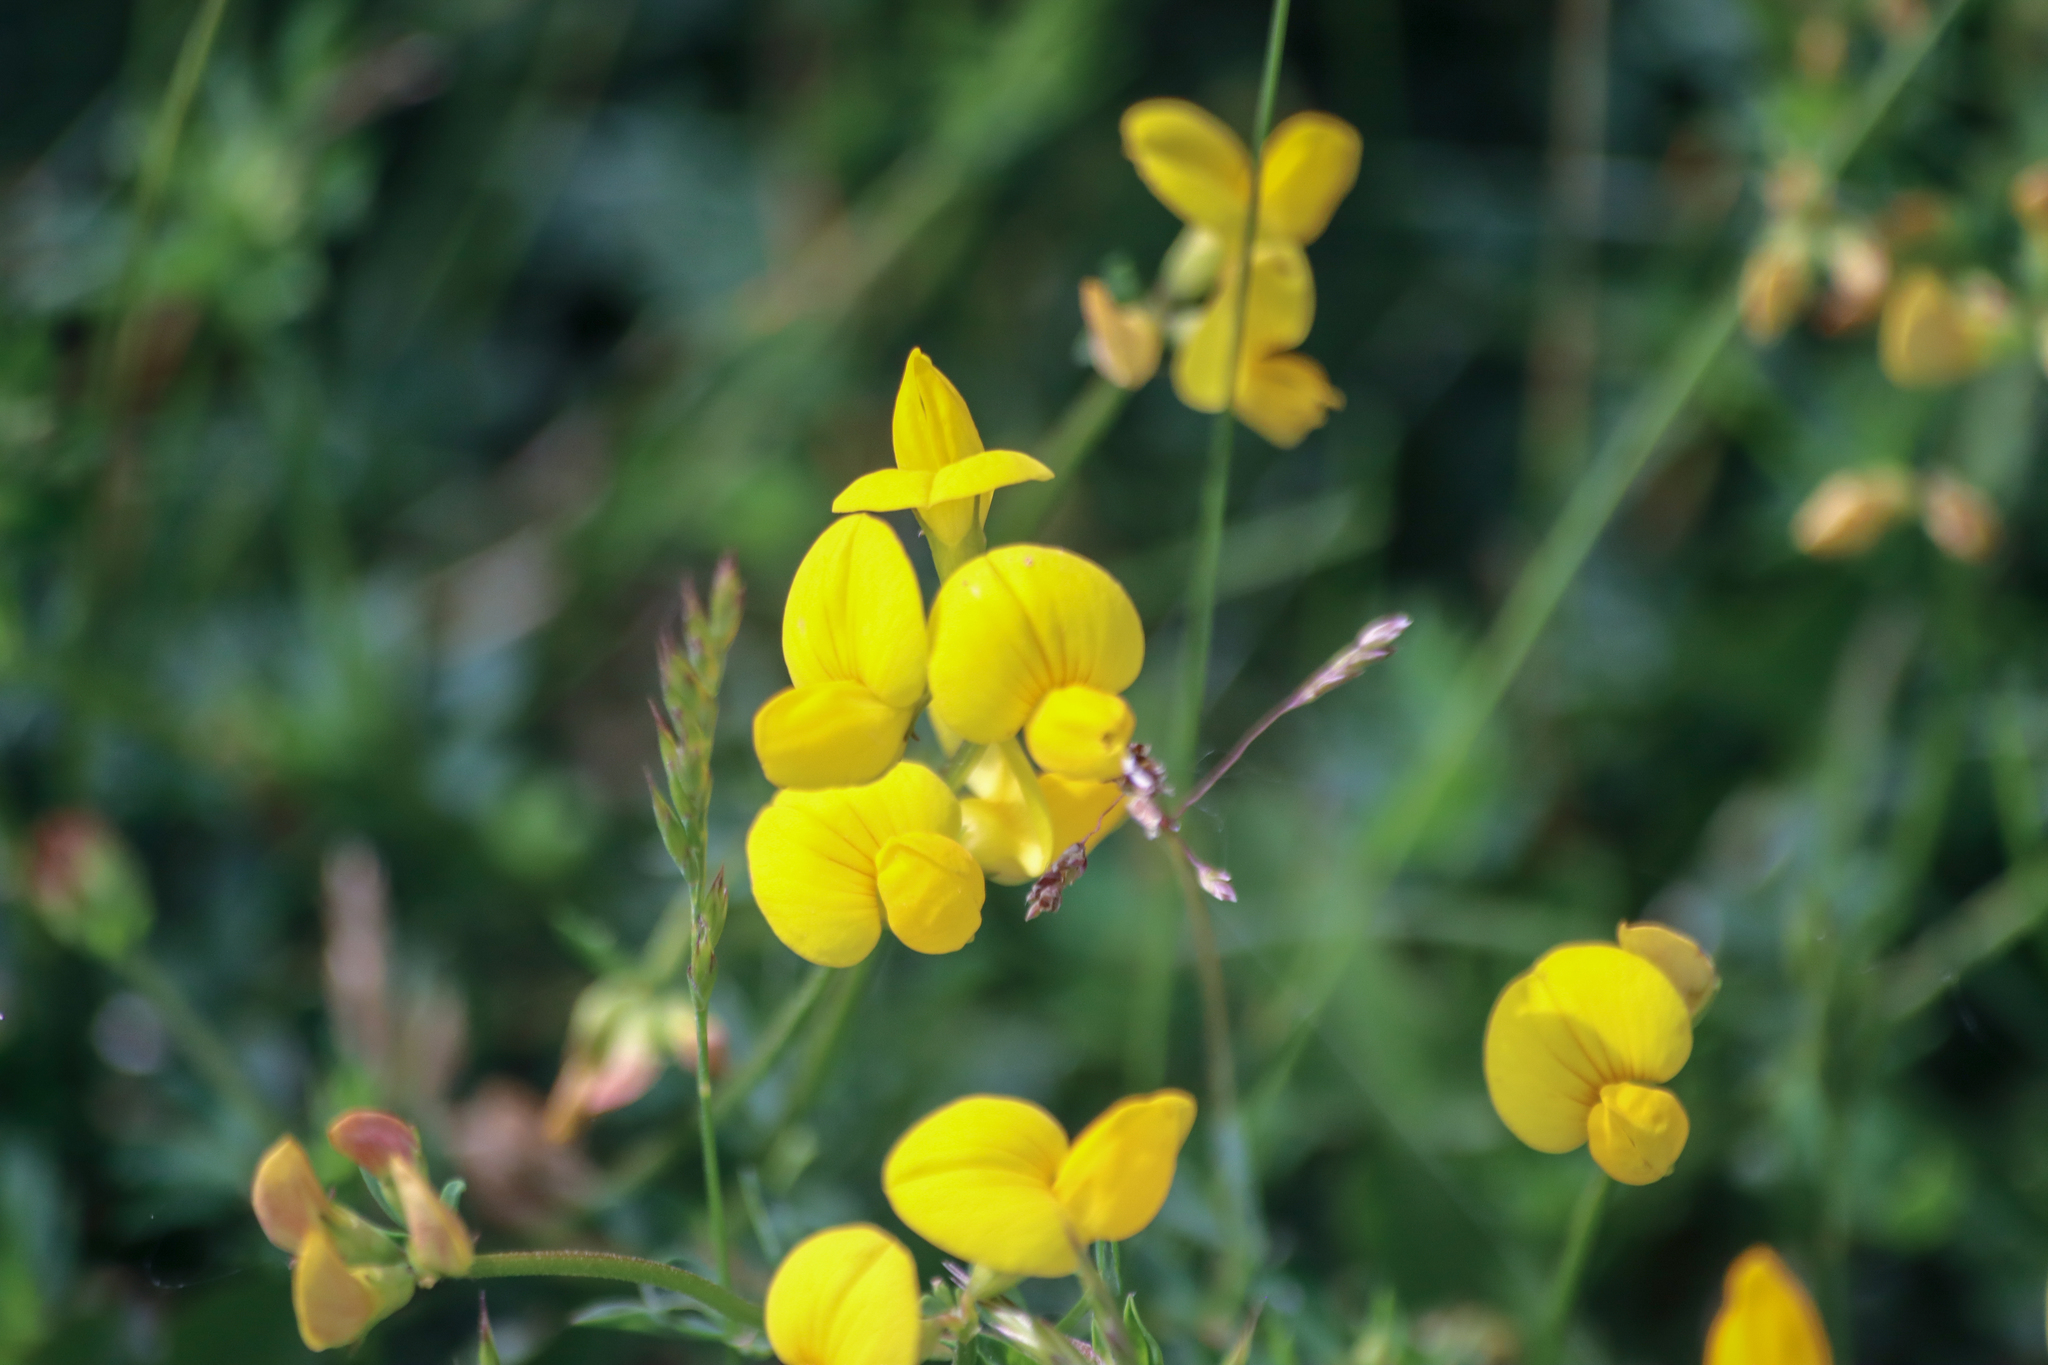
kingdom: Plantae
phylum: Tracheophyta
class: Magnoliopsida
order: Fabales
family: Fabaceae
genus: Lotus
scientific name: Lotus corniculatus
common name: Common bird's-foot-trefoil
